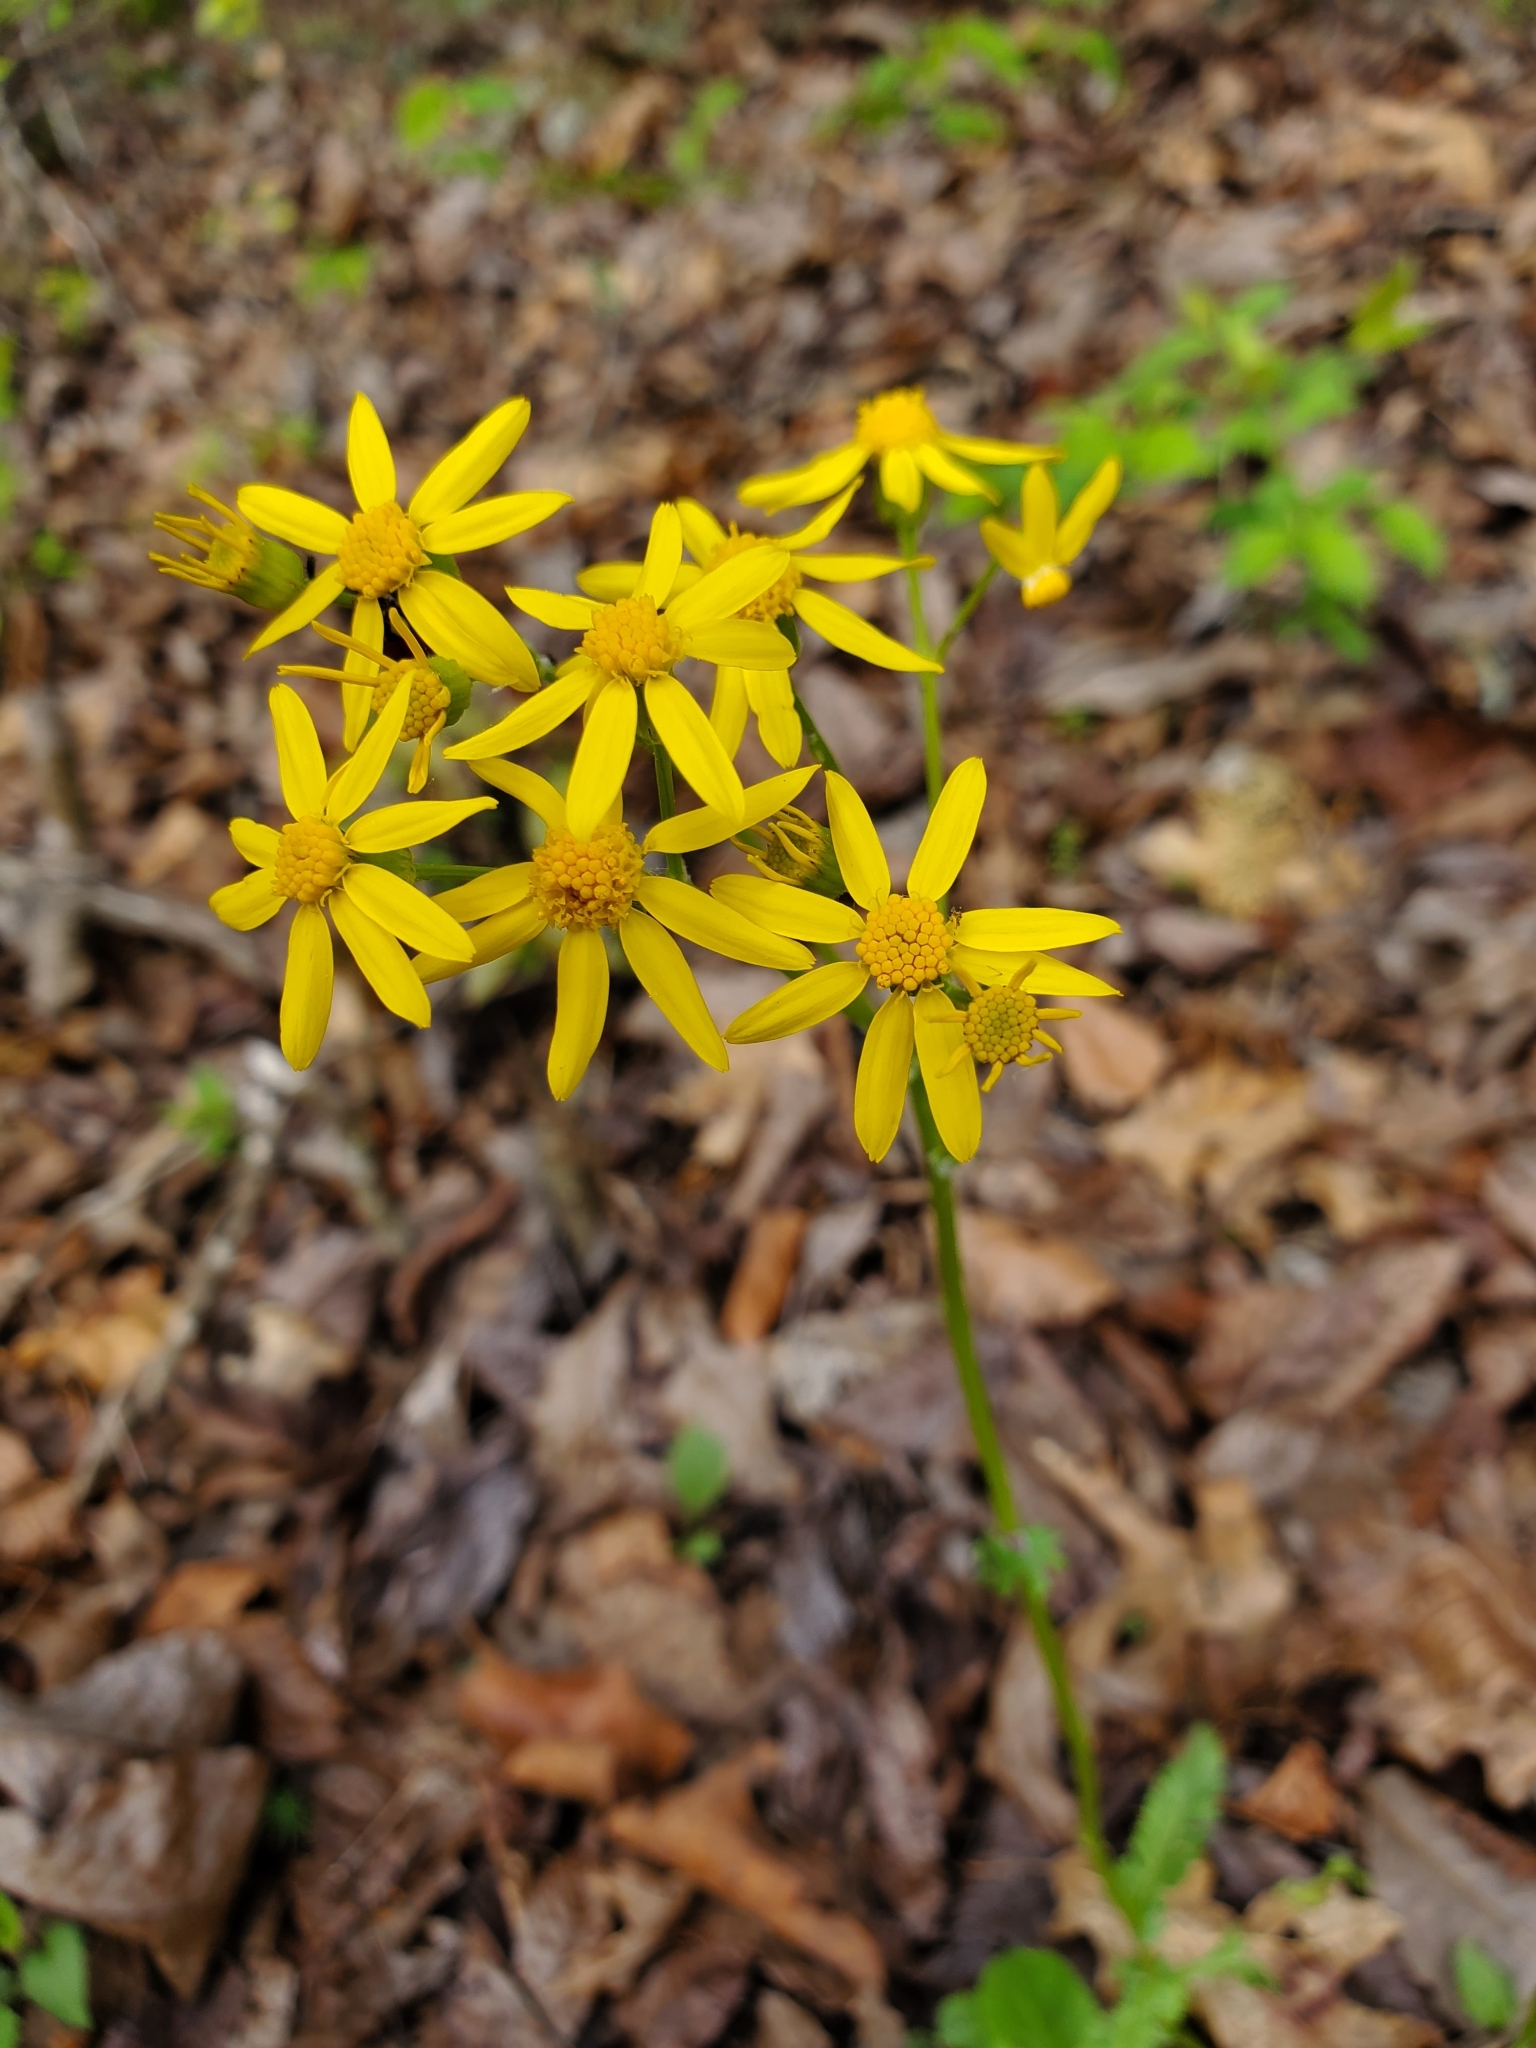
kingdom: Plantae
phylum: Tracheophyta
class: Magnoliopsida
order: Asterales
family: Asteraceae
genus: Packera
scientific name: Packera obovata
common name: Round-leaf ragwort
